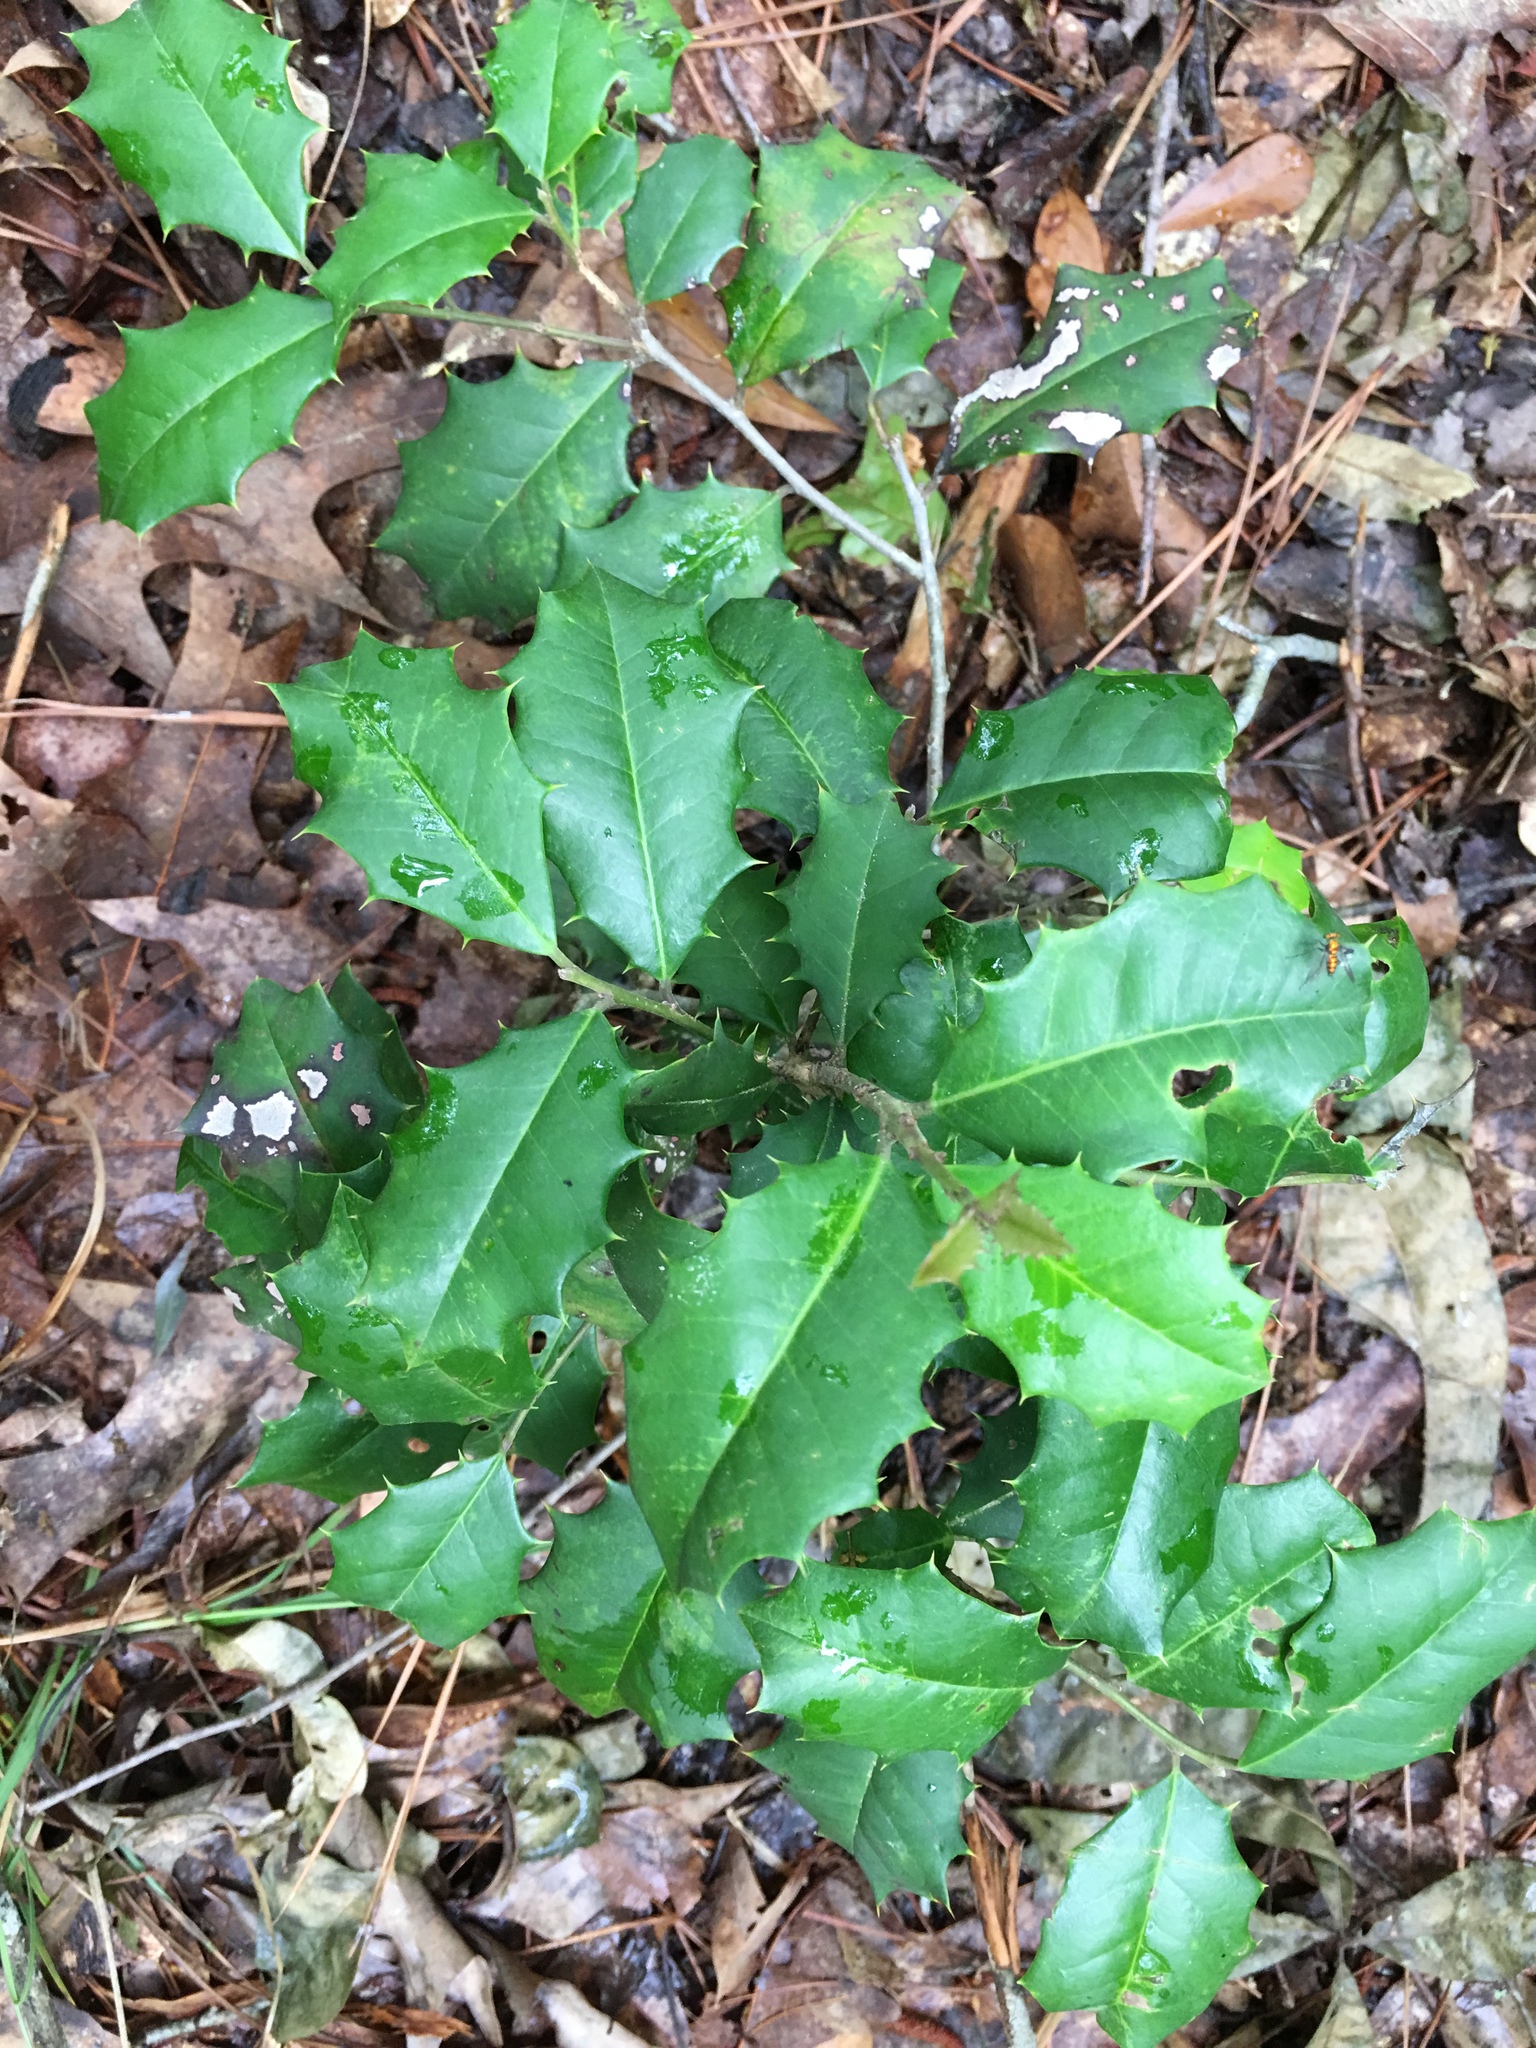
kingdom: Plantae
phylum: Tracheophyta
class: Magnoliopsida
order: Aquifoliales
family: Aquifoliaceae
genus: Ilex
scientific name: Ilex opaca
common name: American holly
